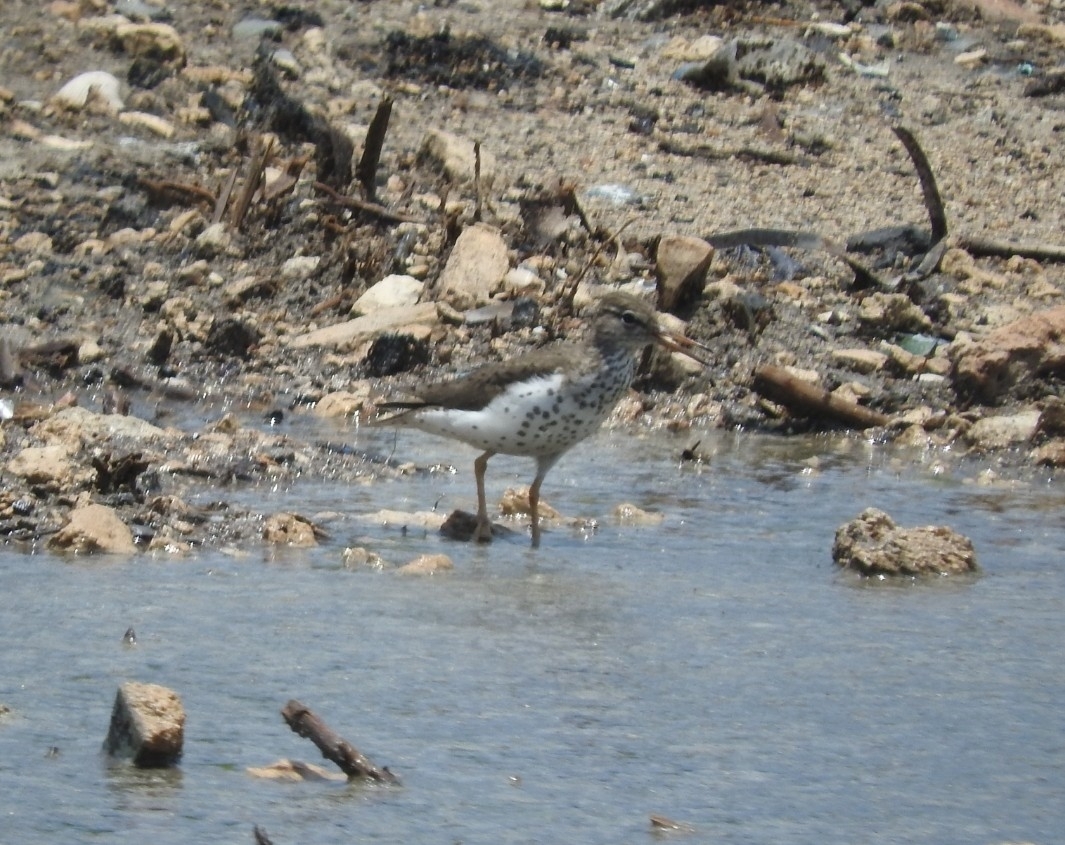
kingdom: Animalia
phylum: Chordata
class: Aves
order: Charadriiformes
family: Scolopacidae
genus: Actitis
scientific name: Actitis macularius
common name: Spotted sandpiper
